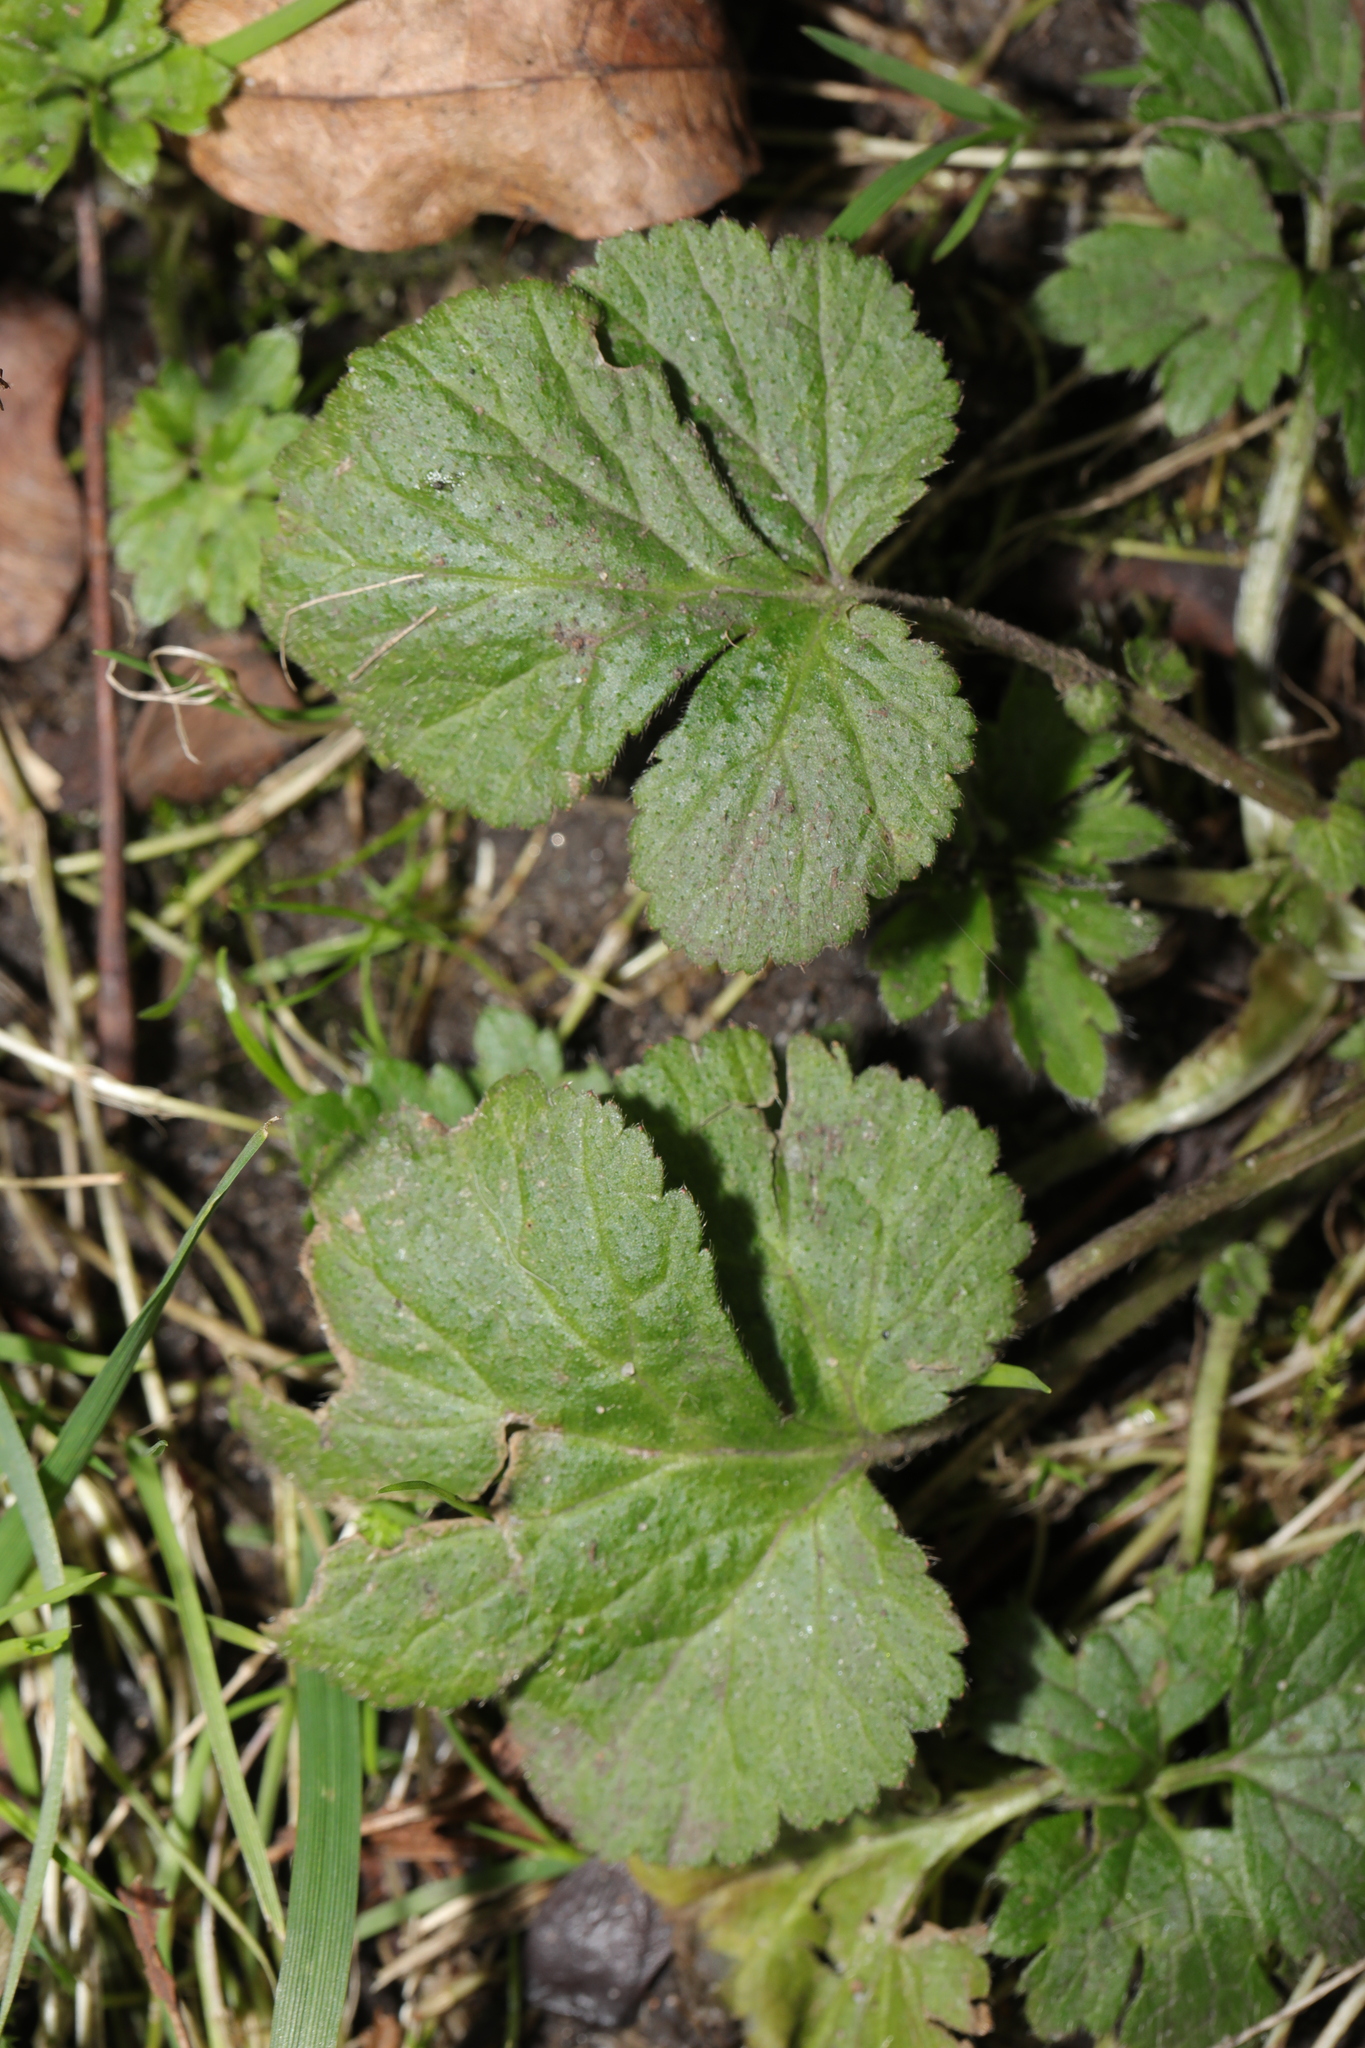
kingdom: Plantae
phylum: Tracheophyta
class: Magnoliopsida
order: Rosales
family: Rosaceae
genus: Geum
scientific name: Geum urbanum
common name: Wood avens
